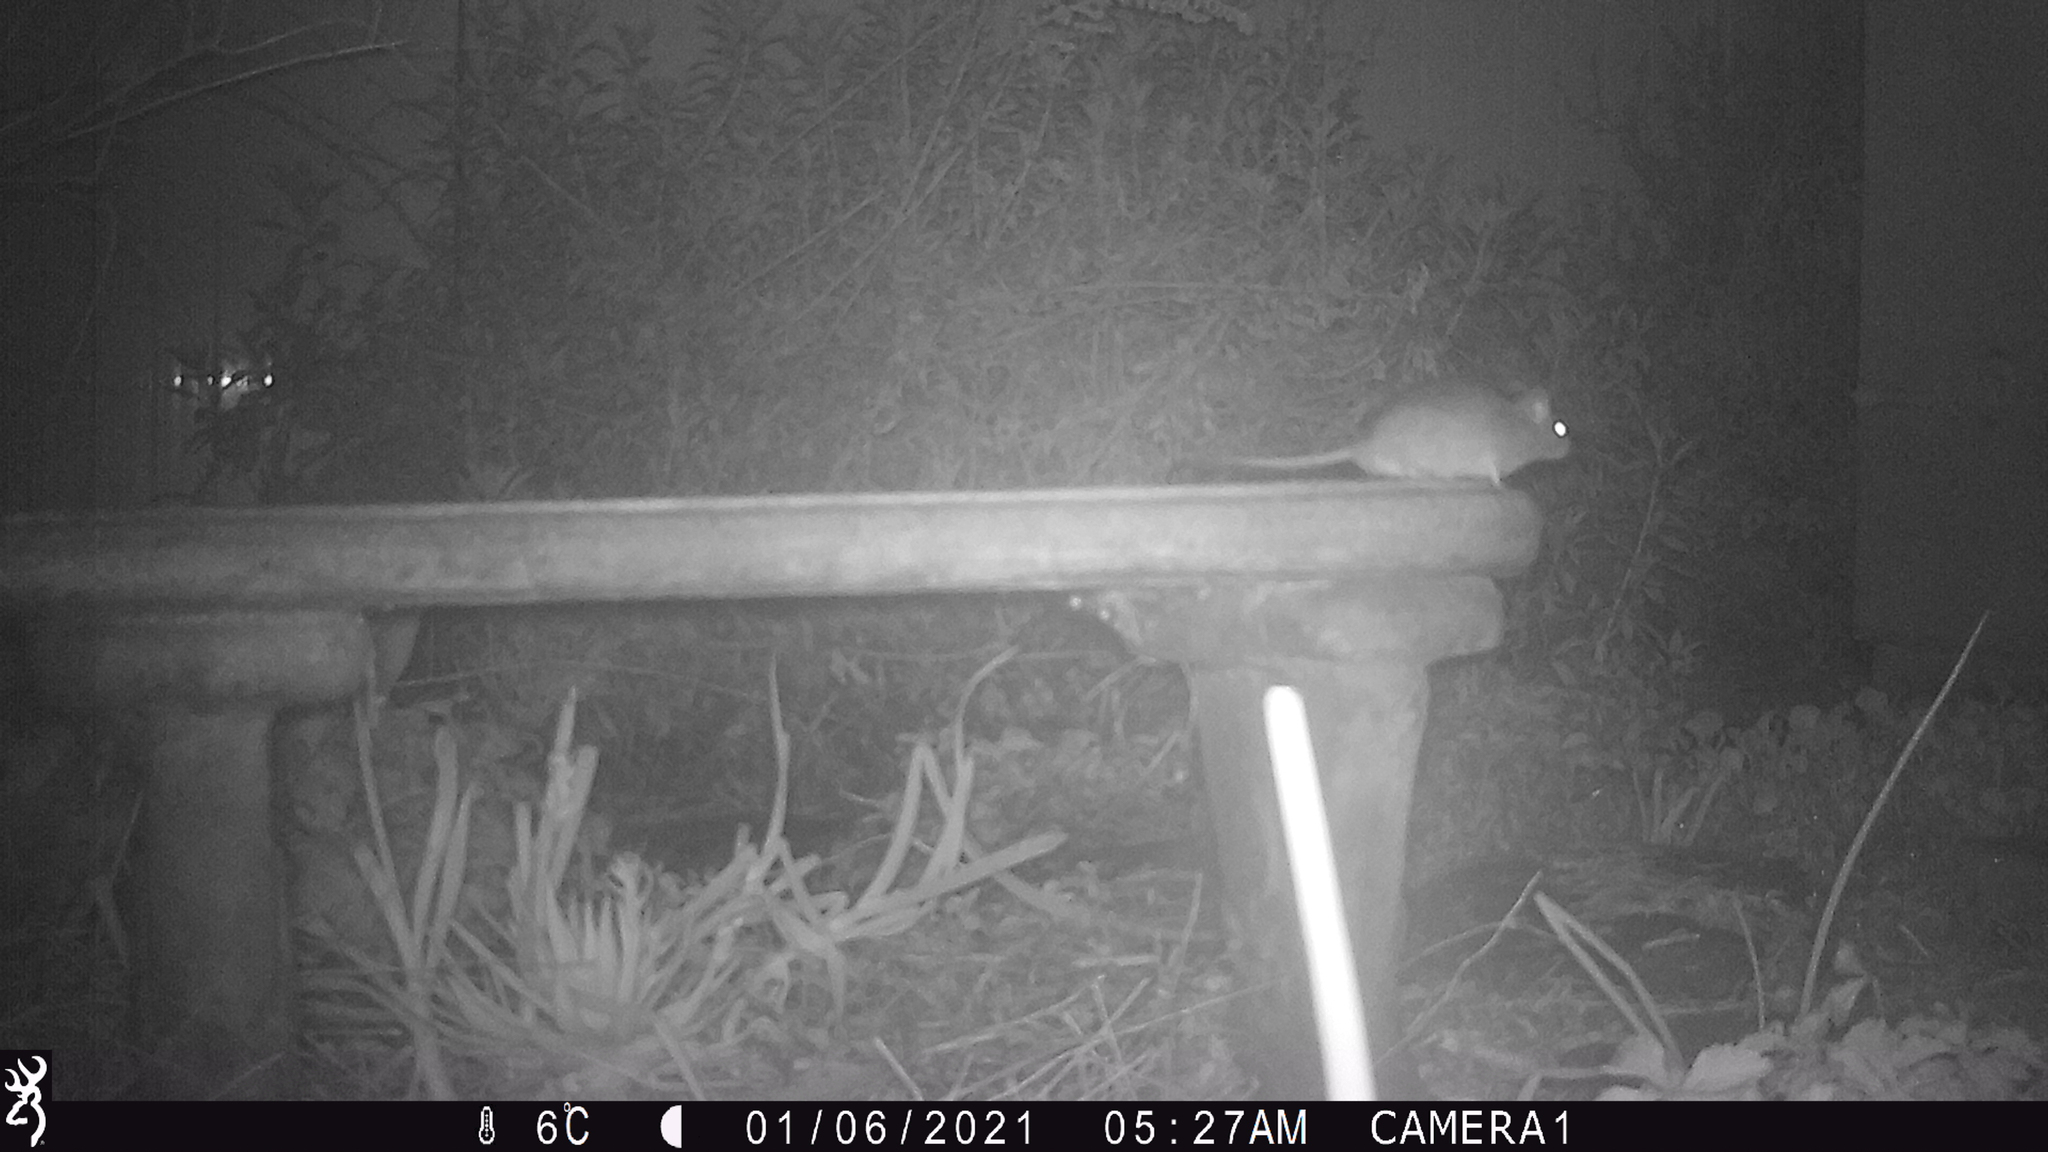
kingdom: Animalia
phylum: Chordata
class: Mammalia
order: Rodentia
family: Muridae
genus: Rattus
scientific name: Rattus rattus
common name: Black rat
